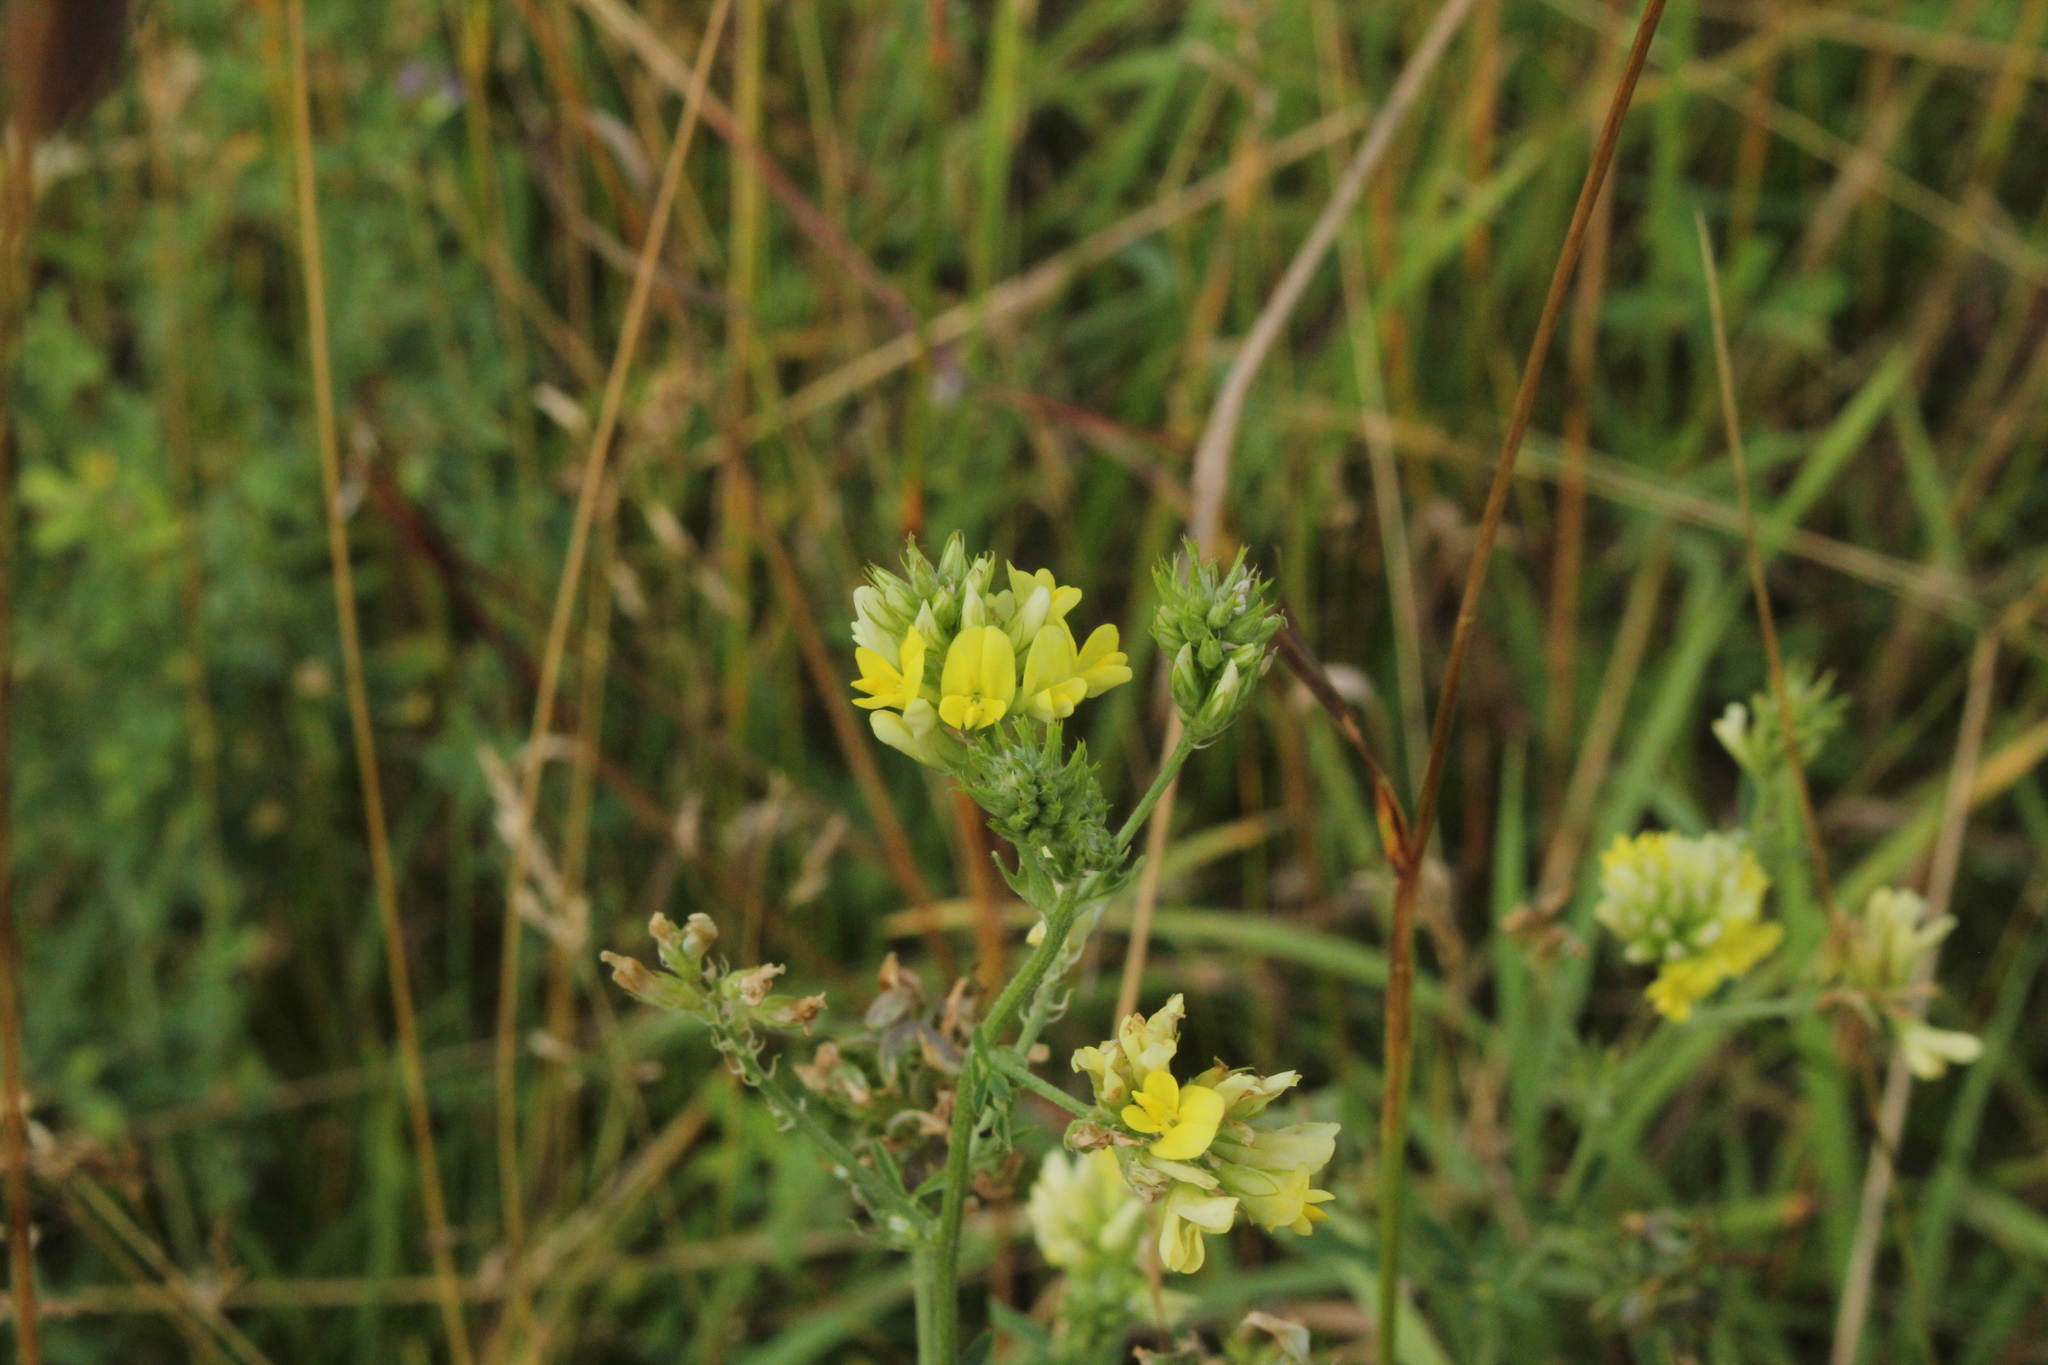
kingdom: Plantae
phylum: Tracheophyta
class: Magnoliopsida
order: Fabales
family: Fabaceae
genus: Medicago
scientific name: Medicago varia
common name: Sand lucerne
